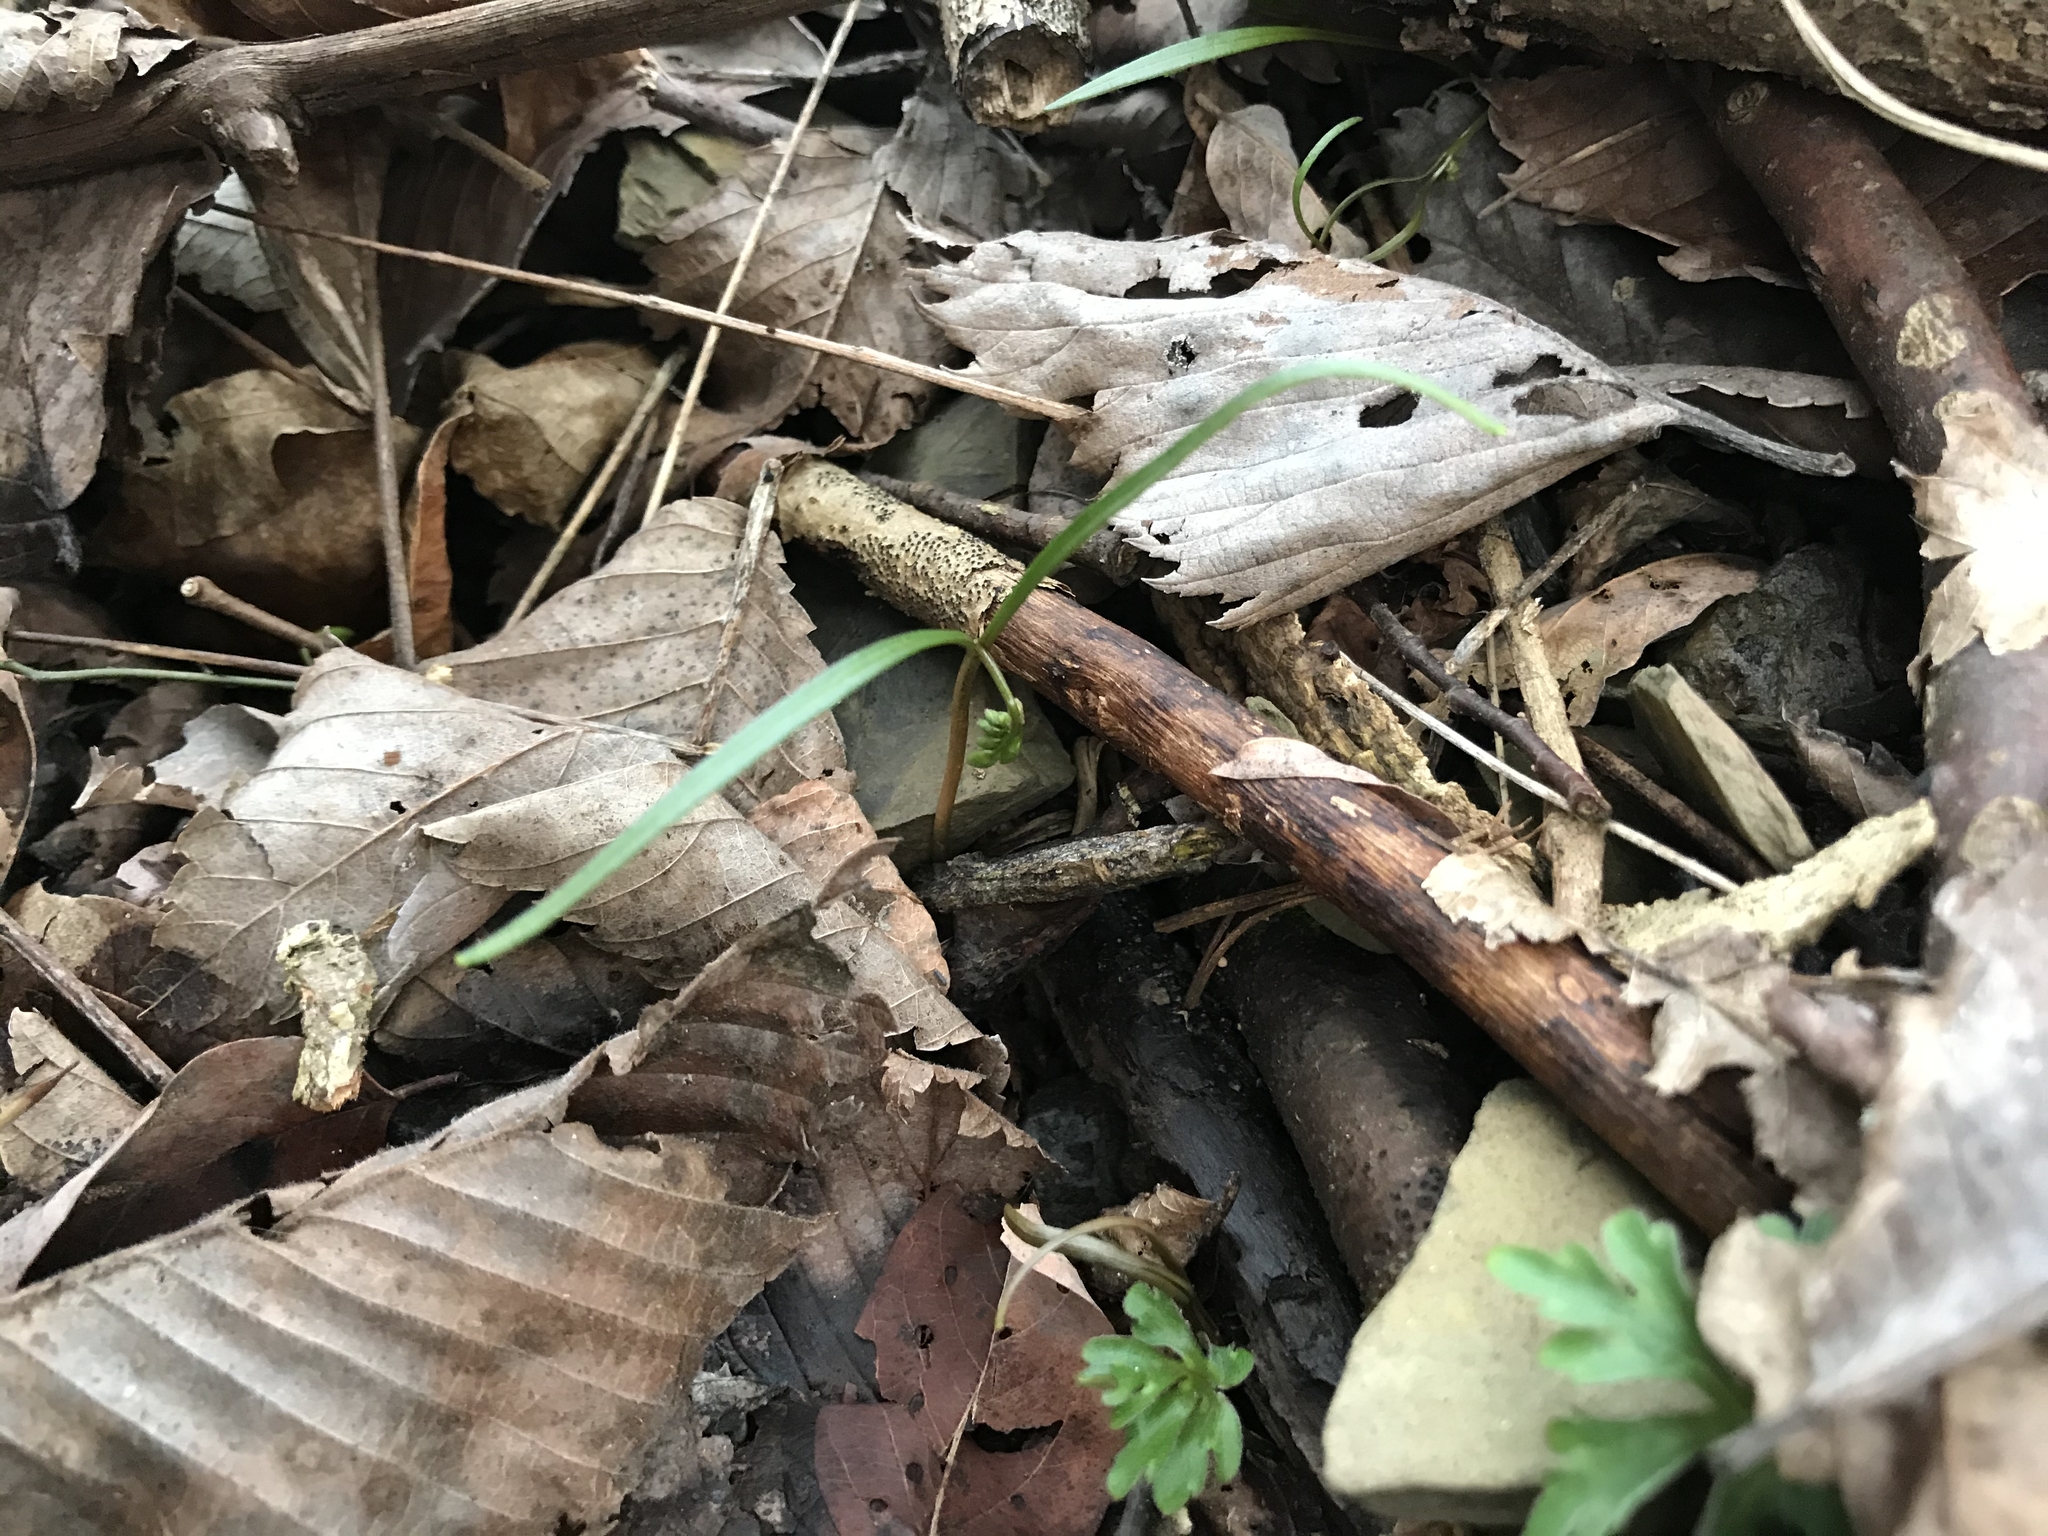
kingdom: Plantae
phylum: Tracheophyta
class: Magnoliopsida
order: Caryophyllales
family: Montiaceae
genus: Claytonia
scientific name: Claytonia virginica
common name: Virginia springbeauty
